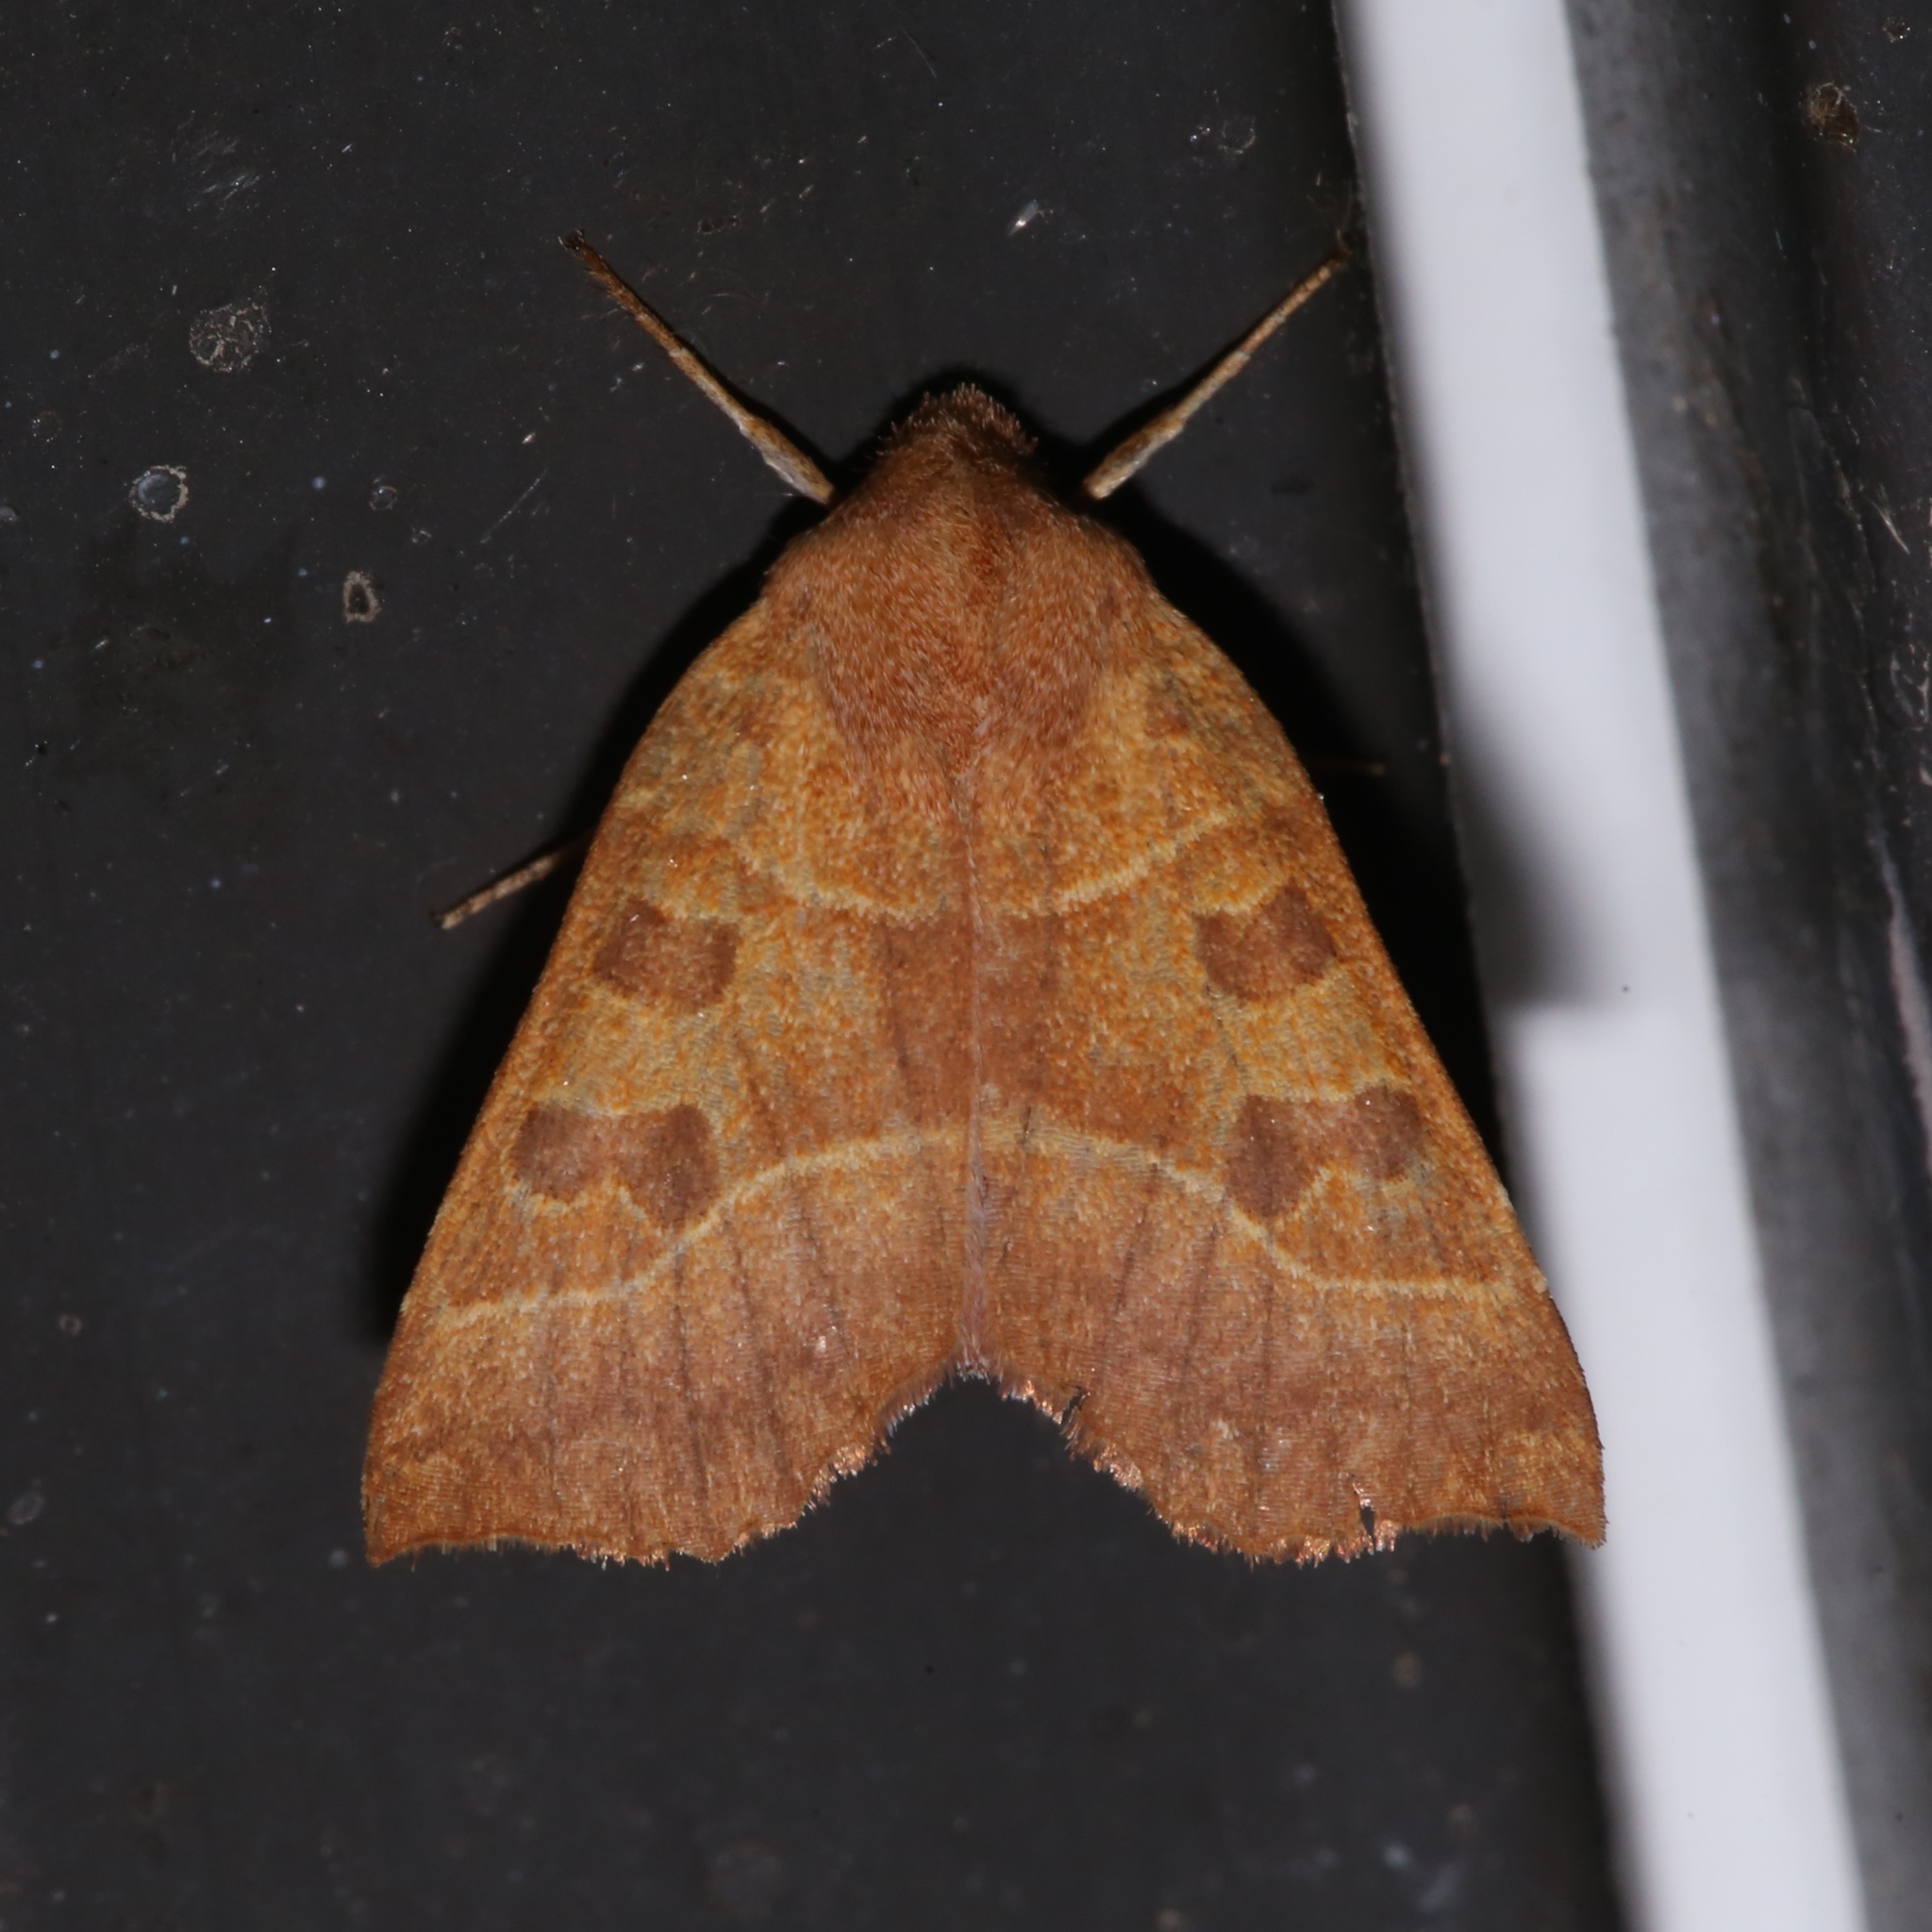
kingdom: Animalia
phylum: Arthropoda
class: Insecta
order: Lepidoptera
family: Noctuidae
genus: Eucirroedia
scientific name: Eucirroedia pampina
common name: Scalloped sallow
